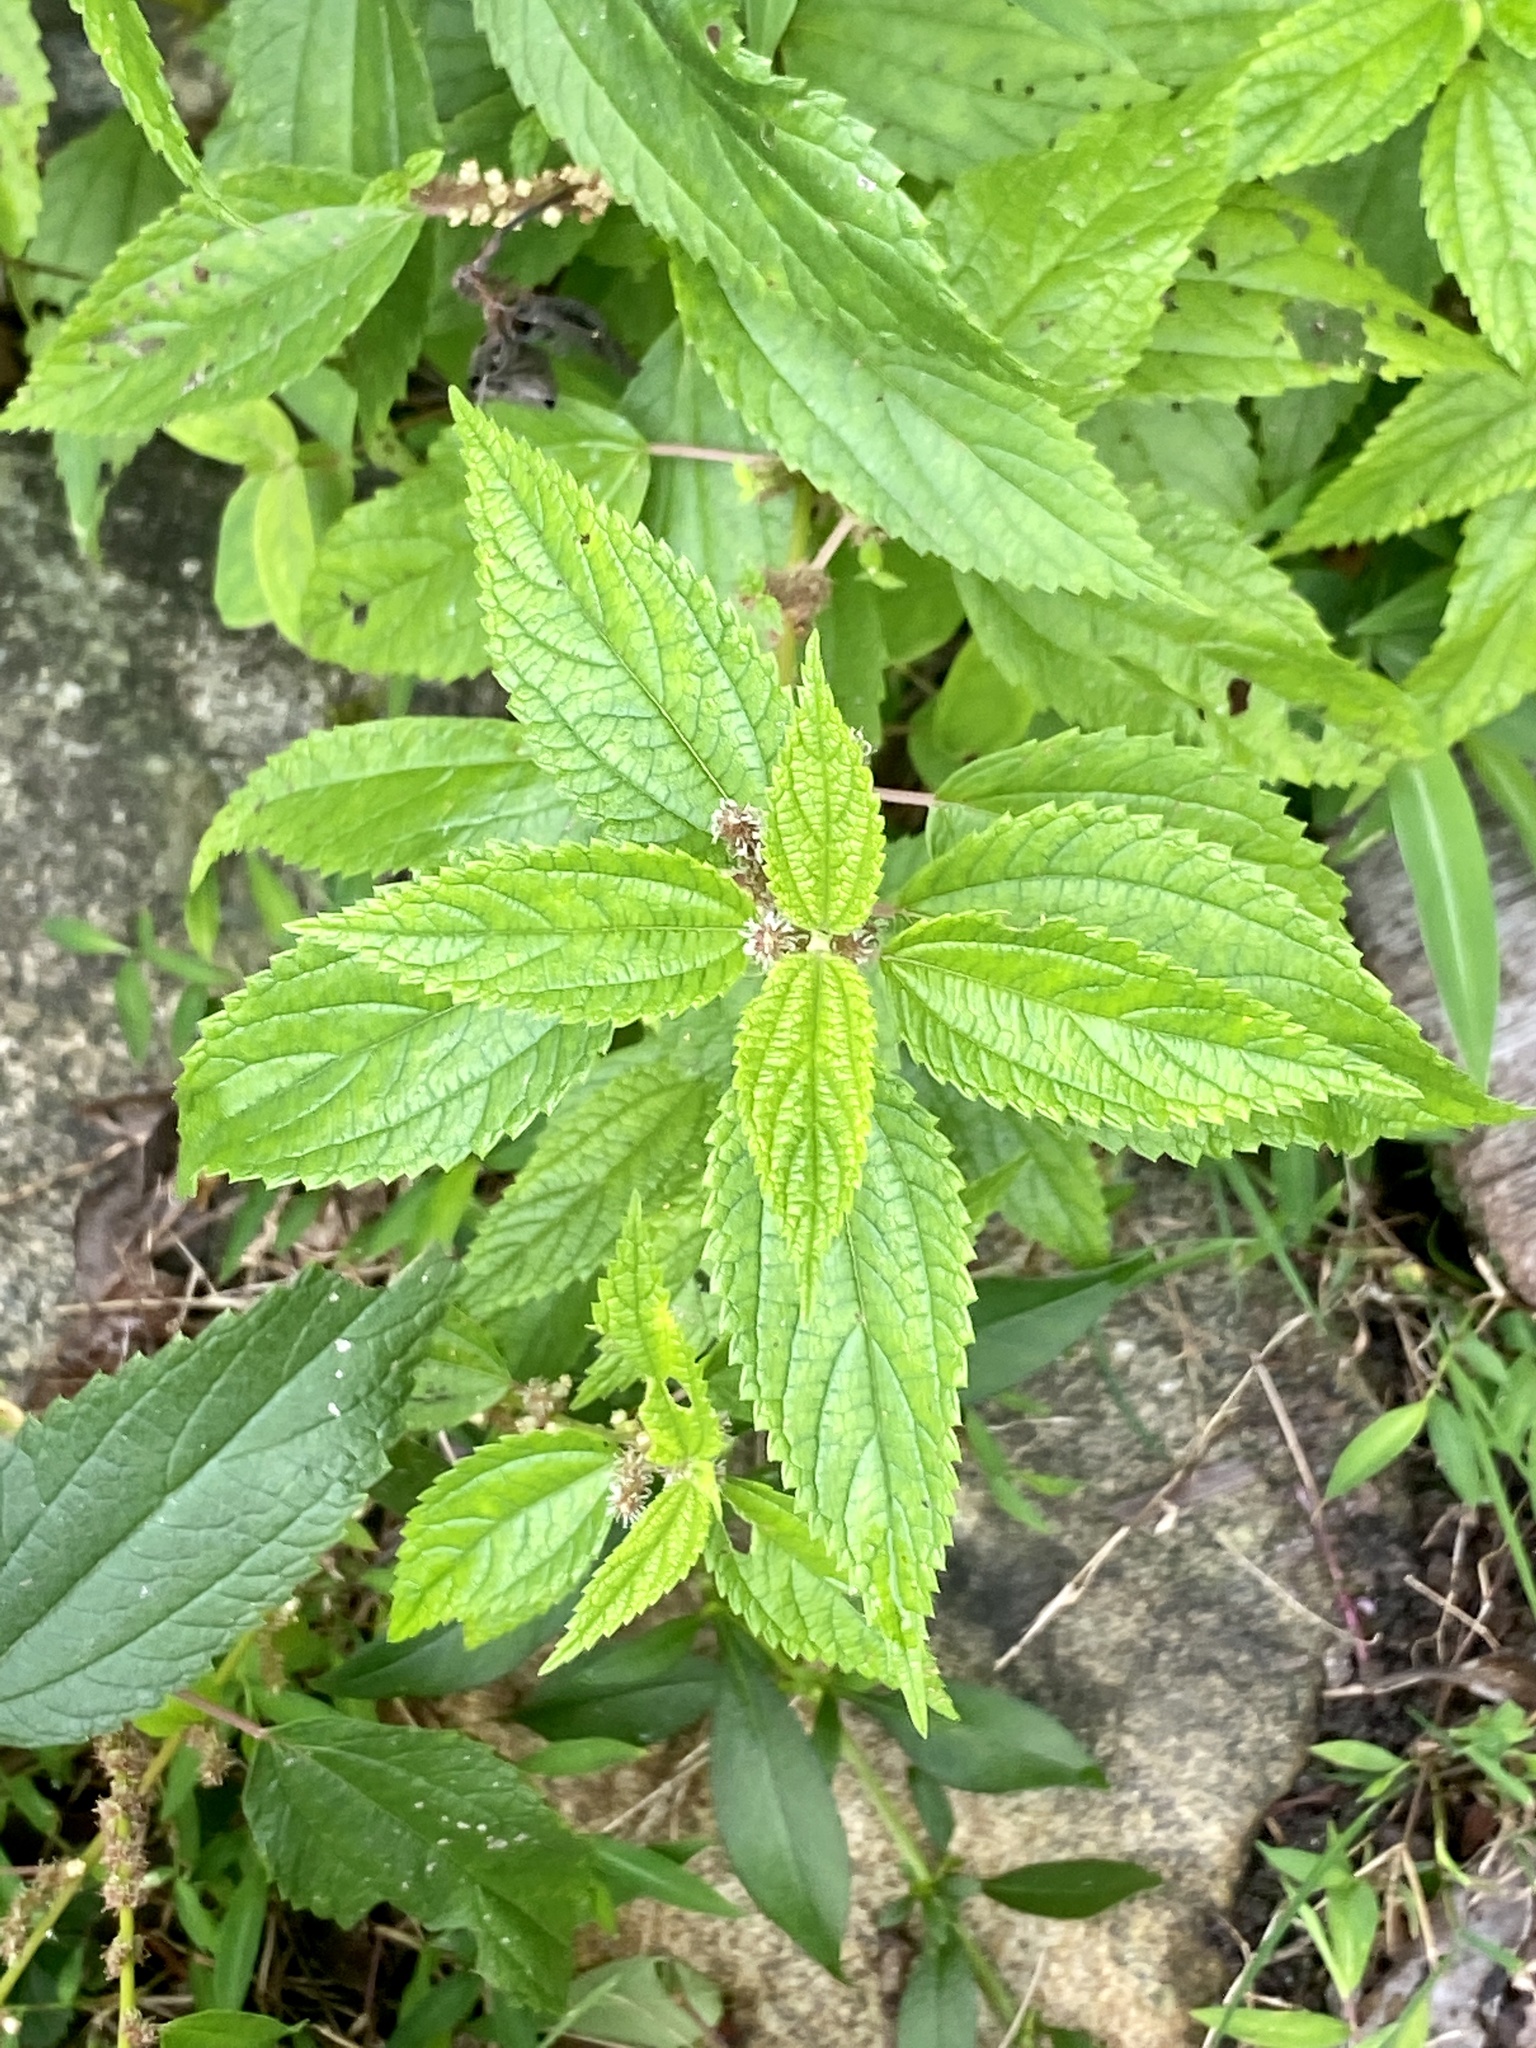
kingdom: Plantae
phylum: Tracheophyta
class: Magnoliopsida
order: Rosales
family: Urticaceae
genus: Boehmeria
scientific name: Boehmeria cylindrica
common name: Bog-hemp
